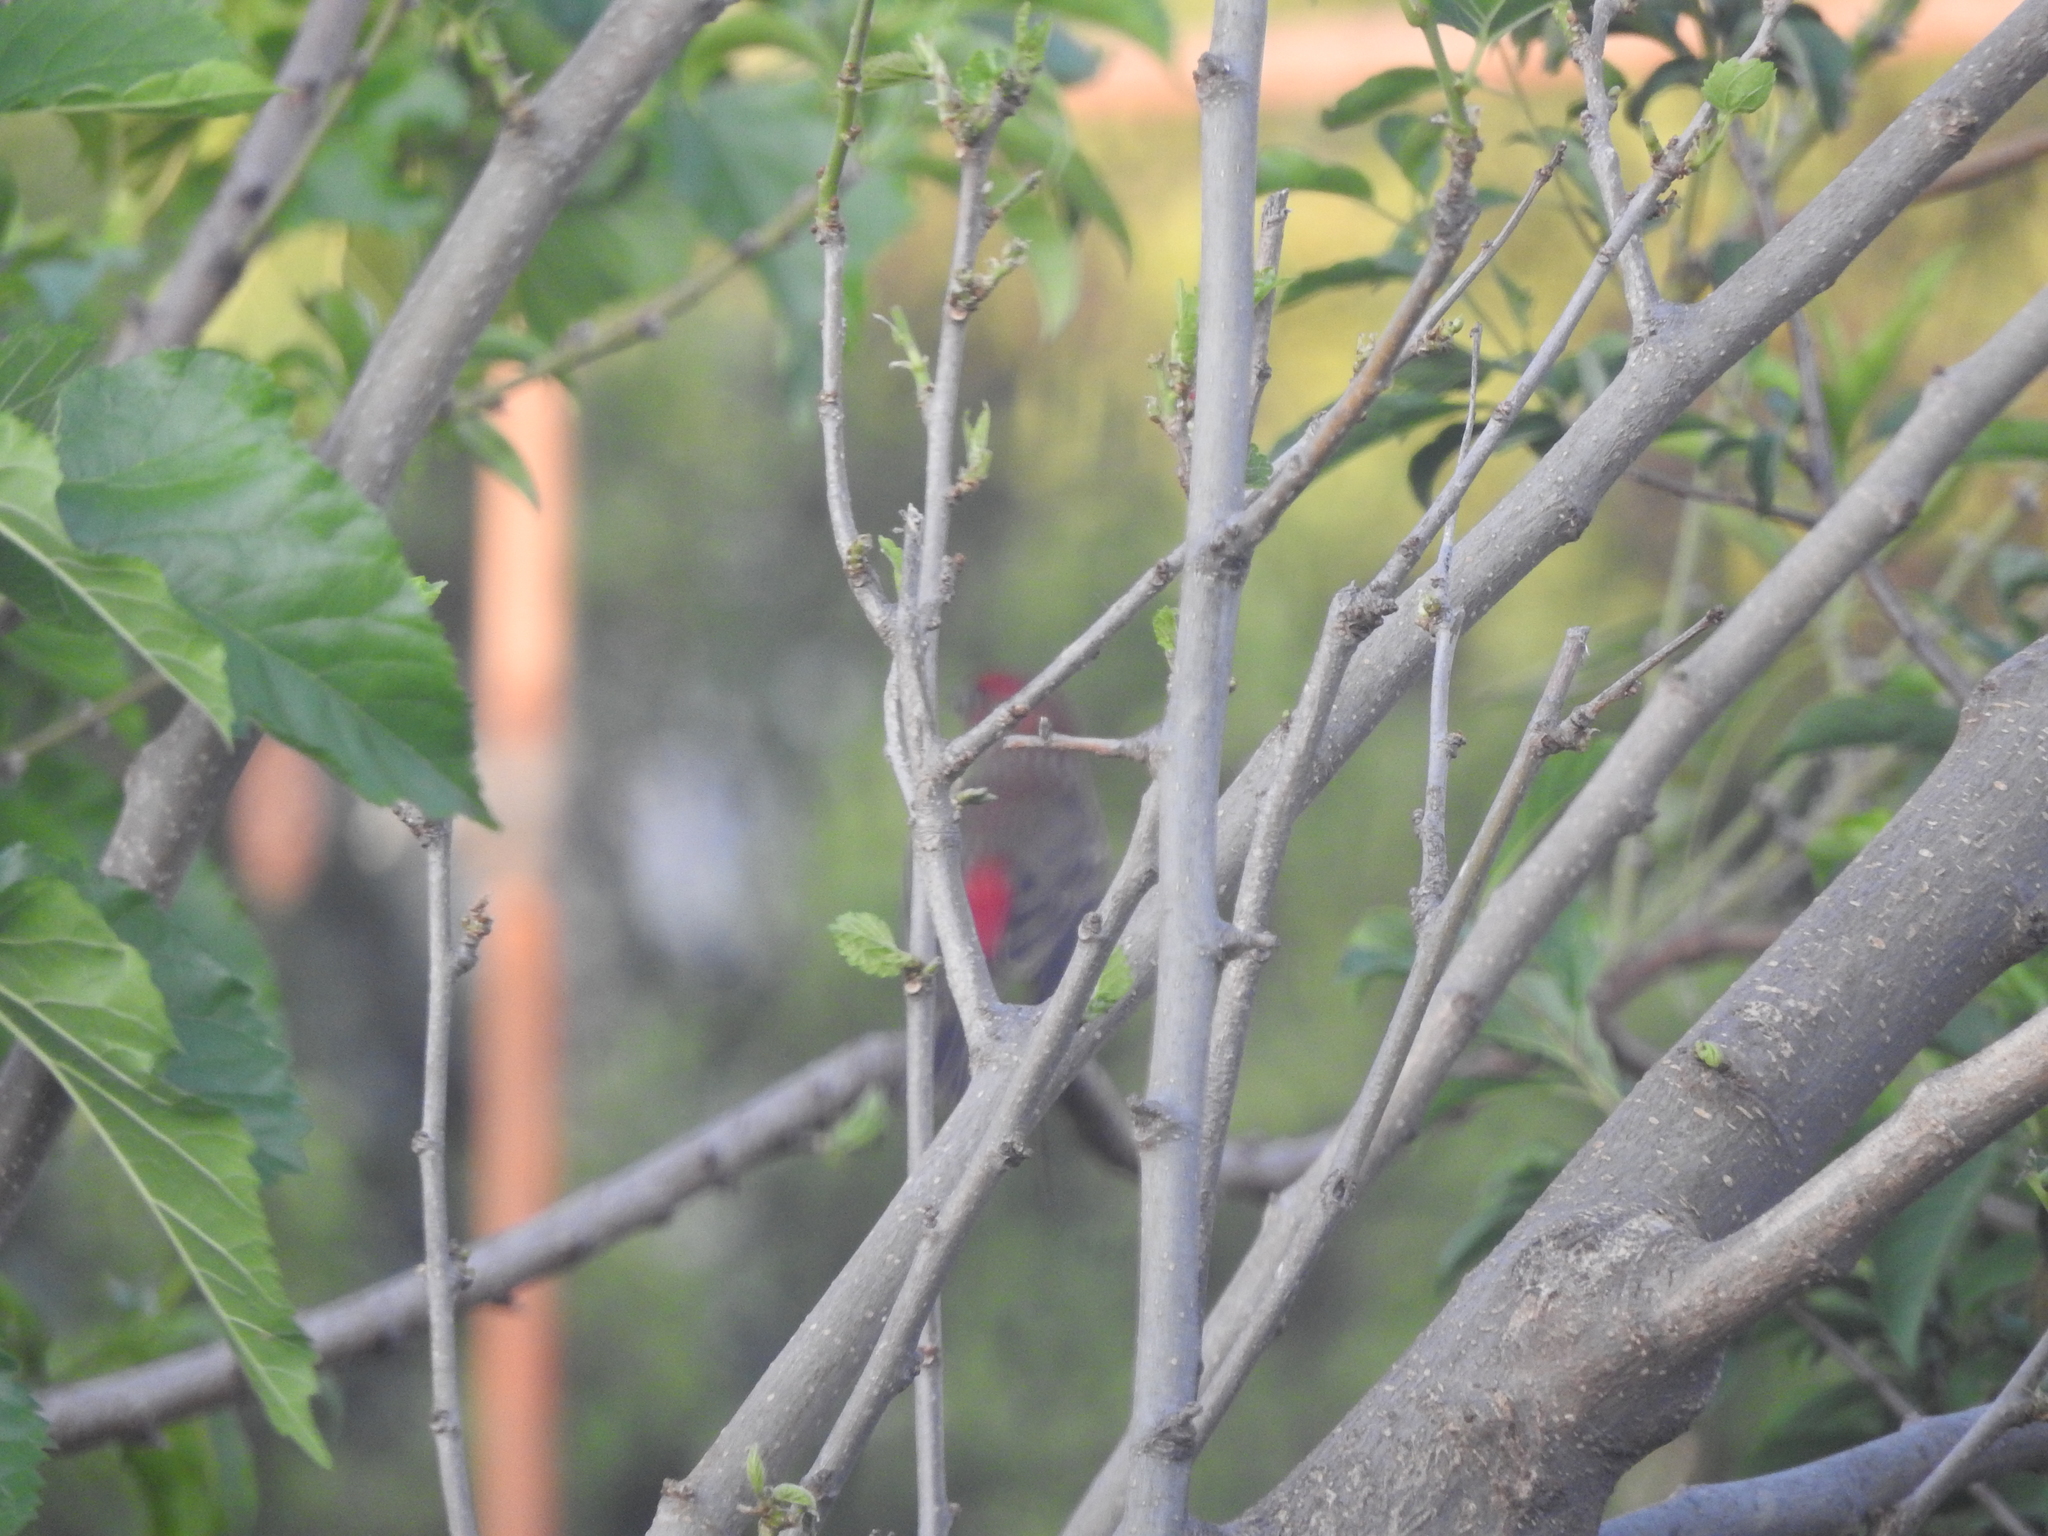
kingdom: Animalia
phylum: Chordata
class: Aves
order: Passeriformes
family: Fringillidae
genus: Haemorhous
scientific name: Haemorhous mexicanus
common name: House finch
